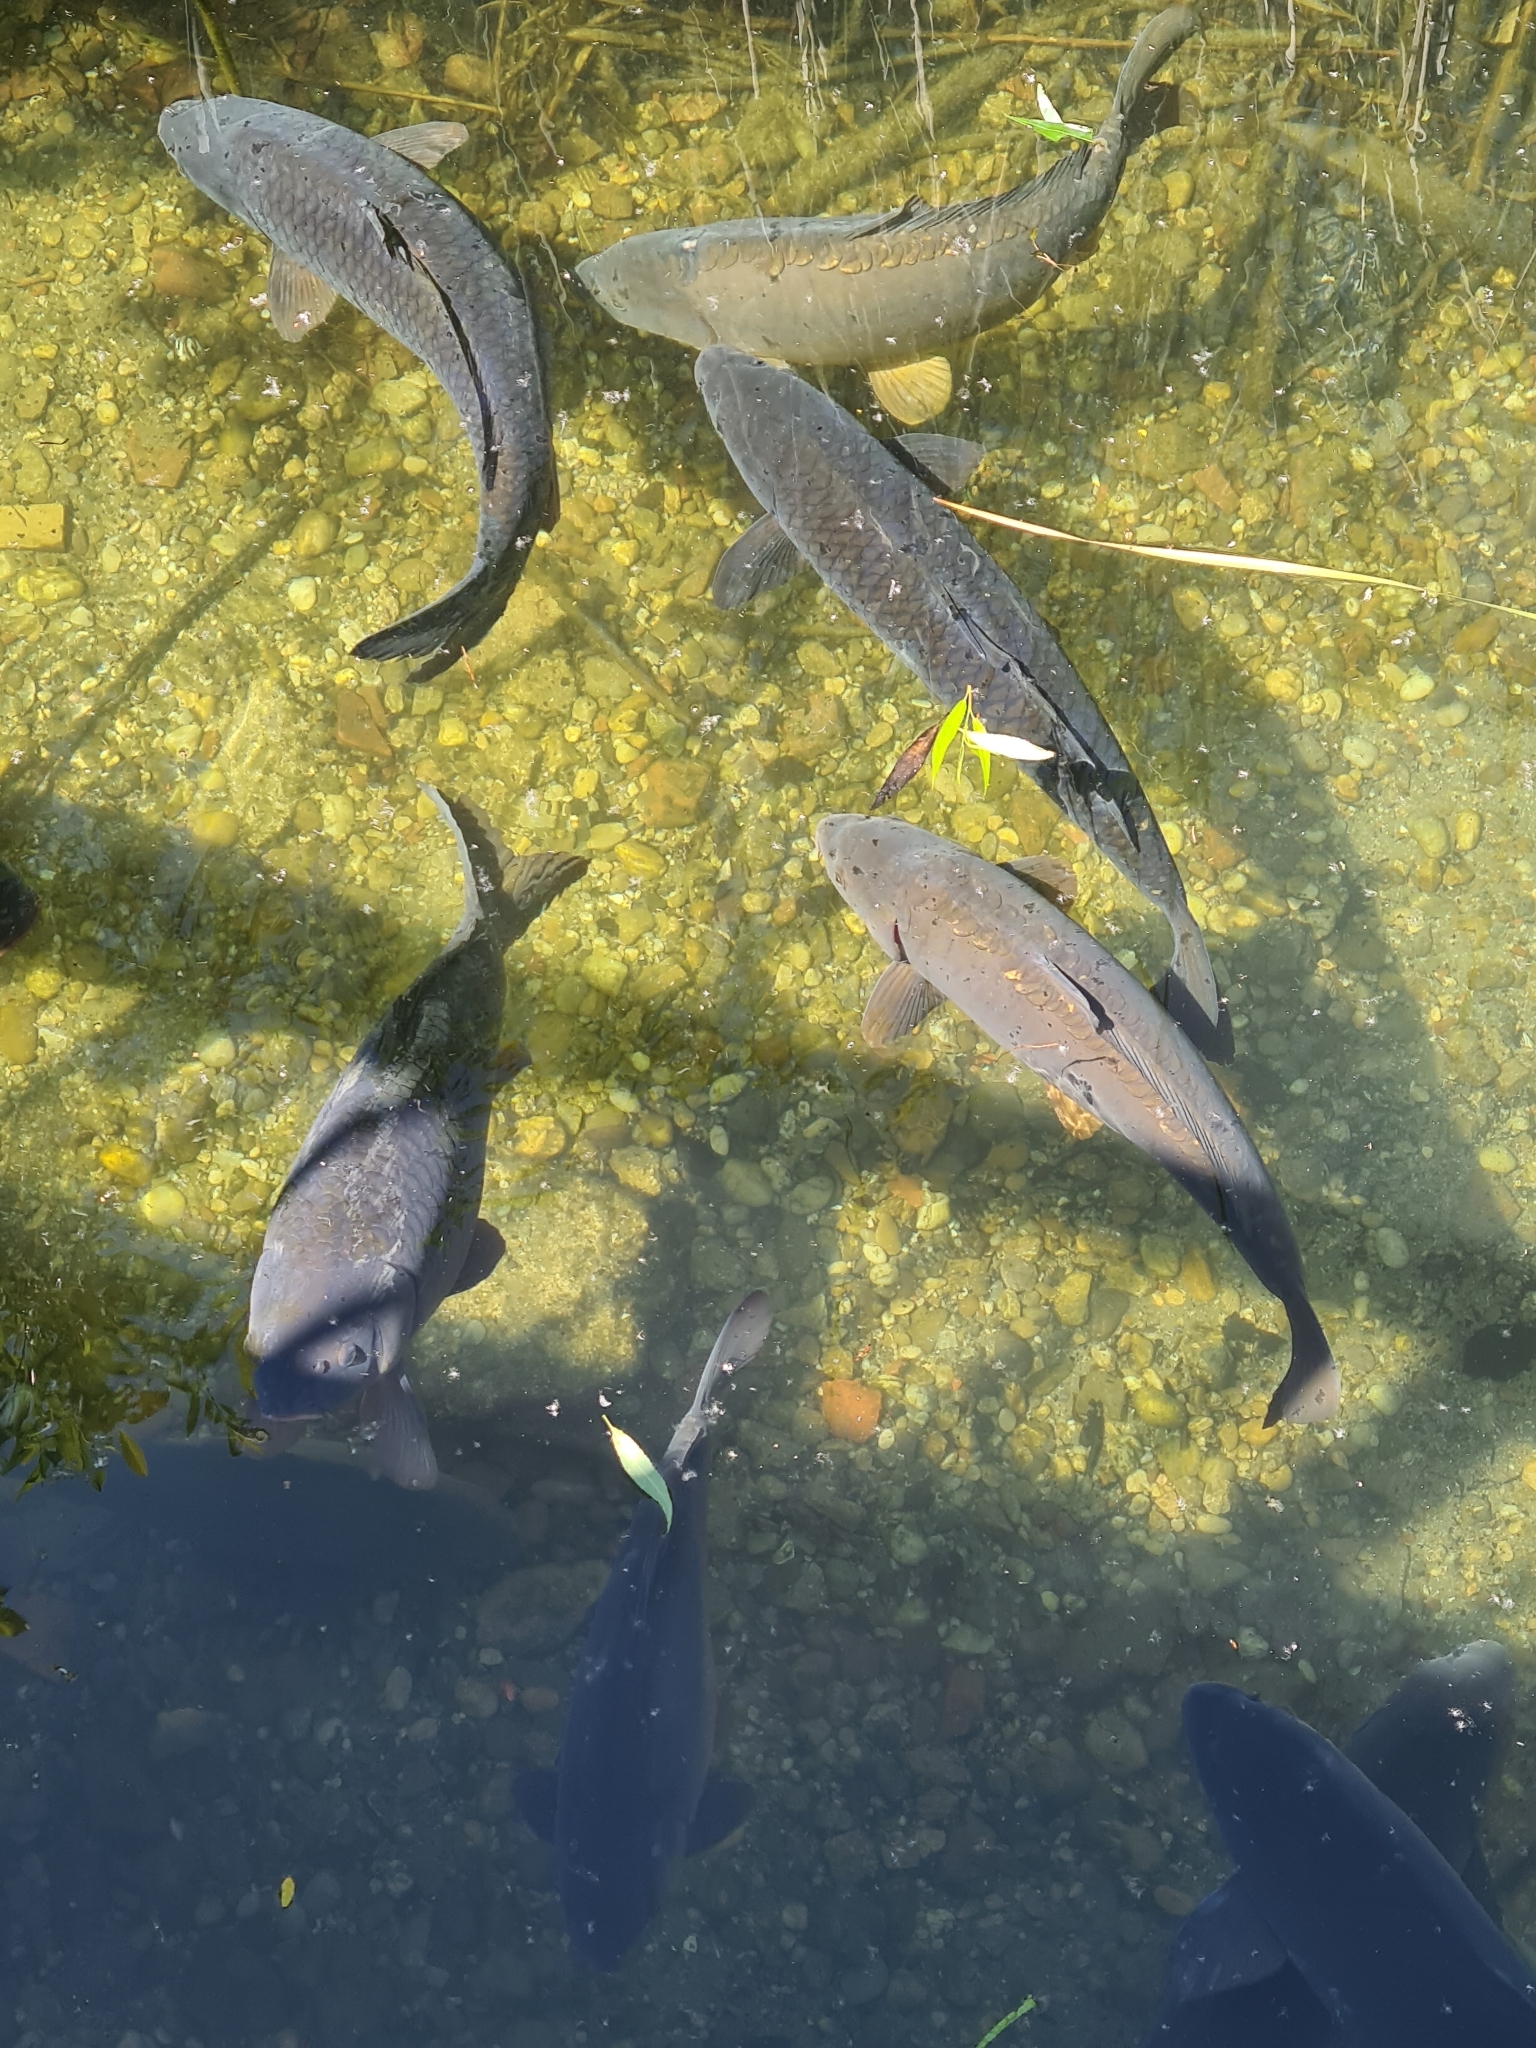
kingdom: Animalia
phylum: Chordata
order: Cypriniformes
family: Cyprinidae
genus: Cyprinus
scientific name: Cyprinus carpio
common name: Common carp
